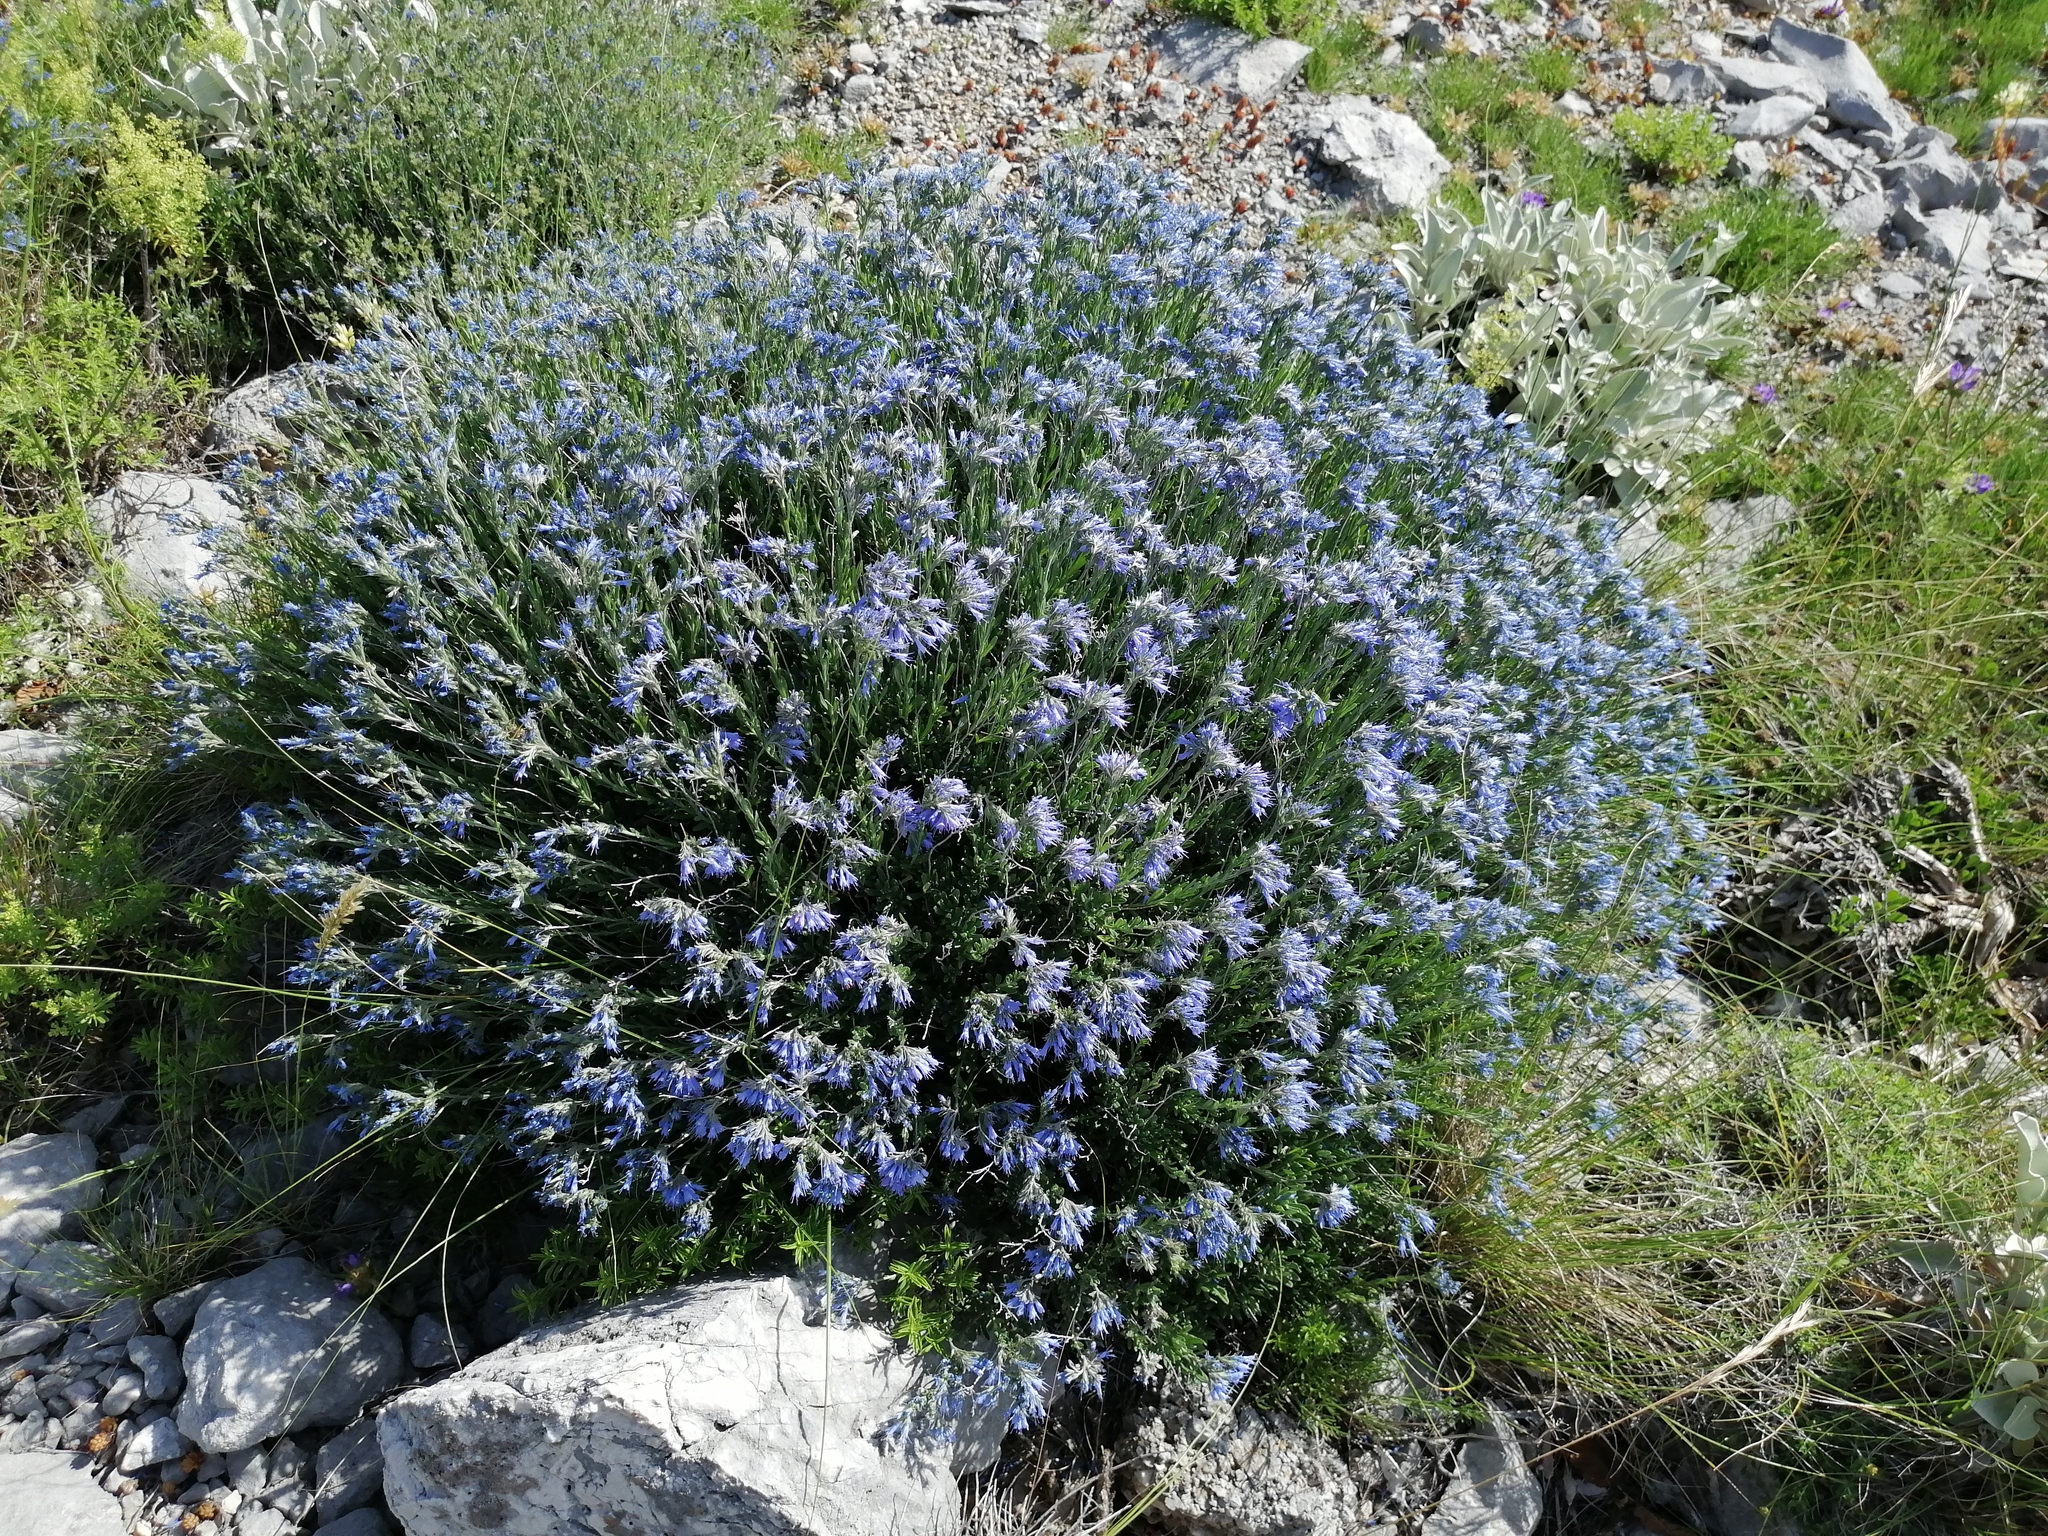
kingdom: Plantae
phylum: Tracheophyta
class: Magnoliopsida
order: Boraginales
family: Boraginaceae
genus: Moltkia
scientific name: Moltkia petraea
